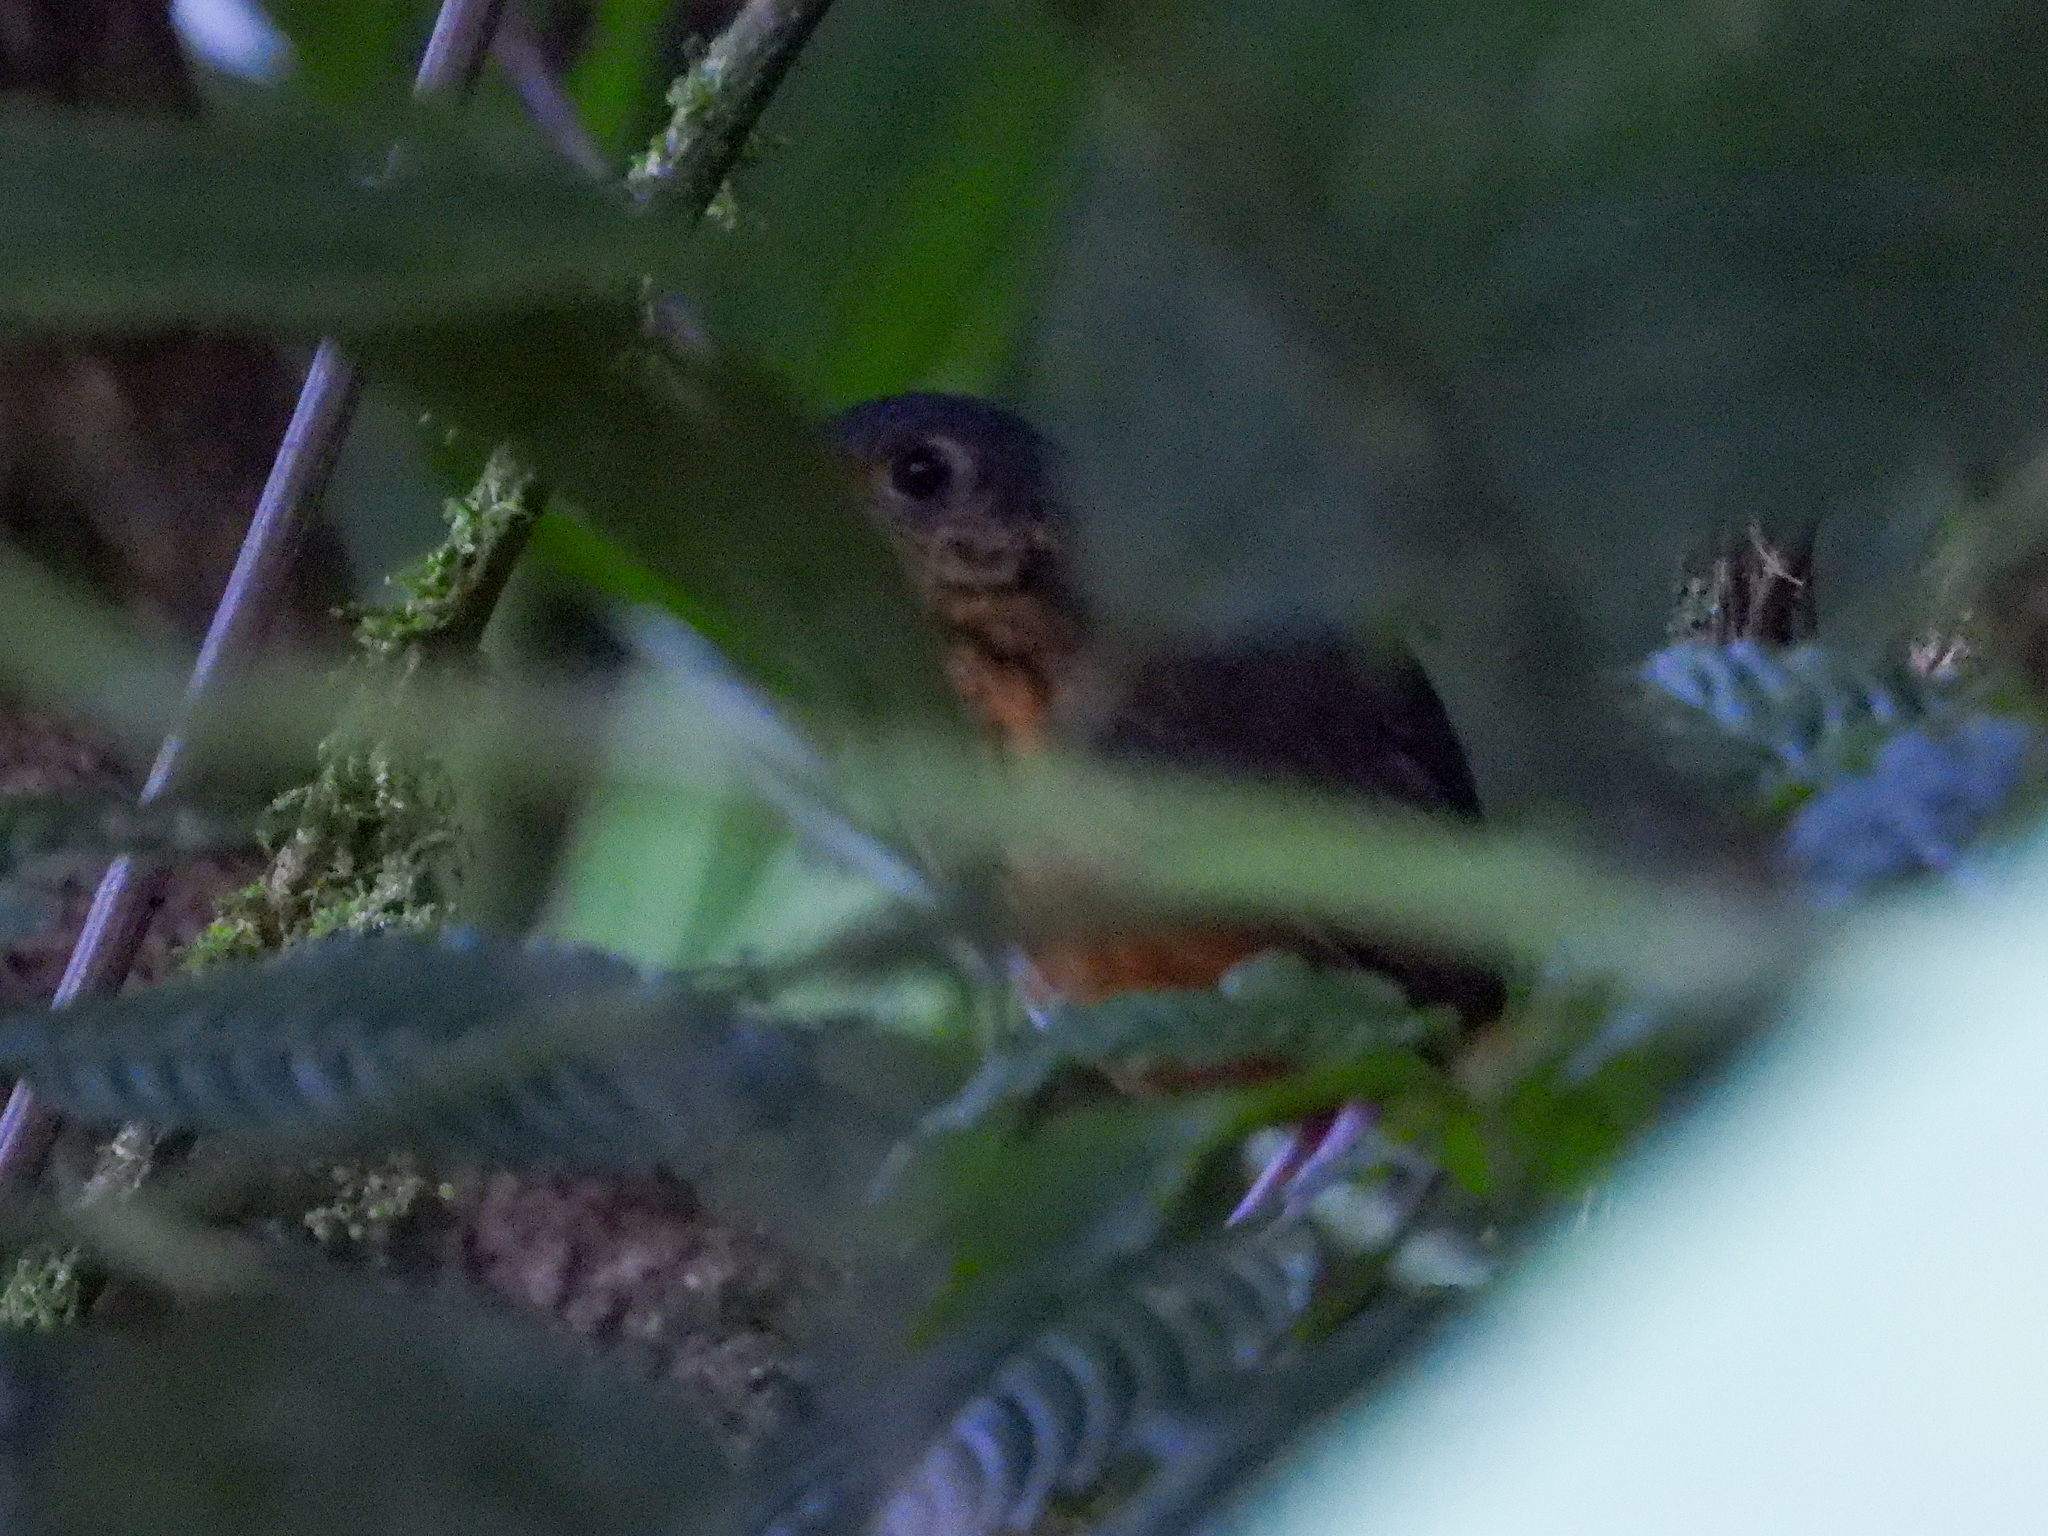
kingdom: Animalia
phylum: Chordata
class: Aves
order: Passeriformes
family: Grallariidae
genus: Hylopezus
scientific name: Hylopezus dives
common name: Thicket antpitta
